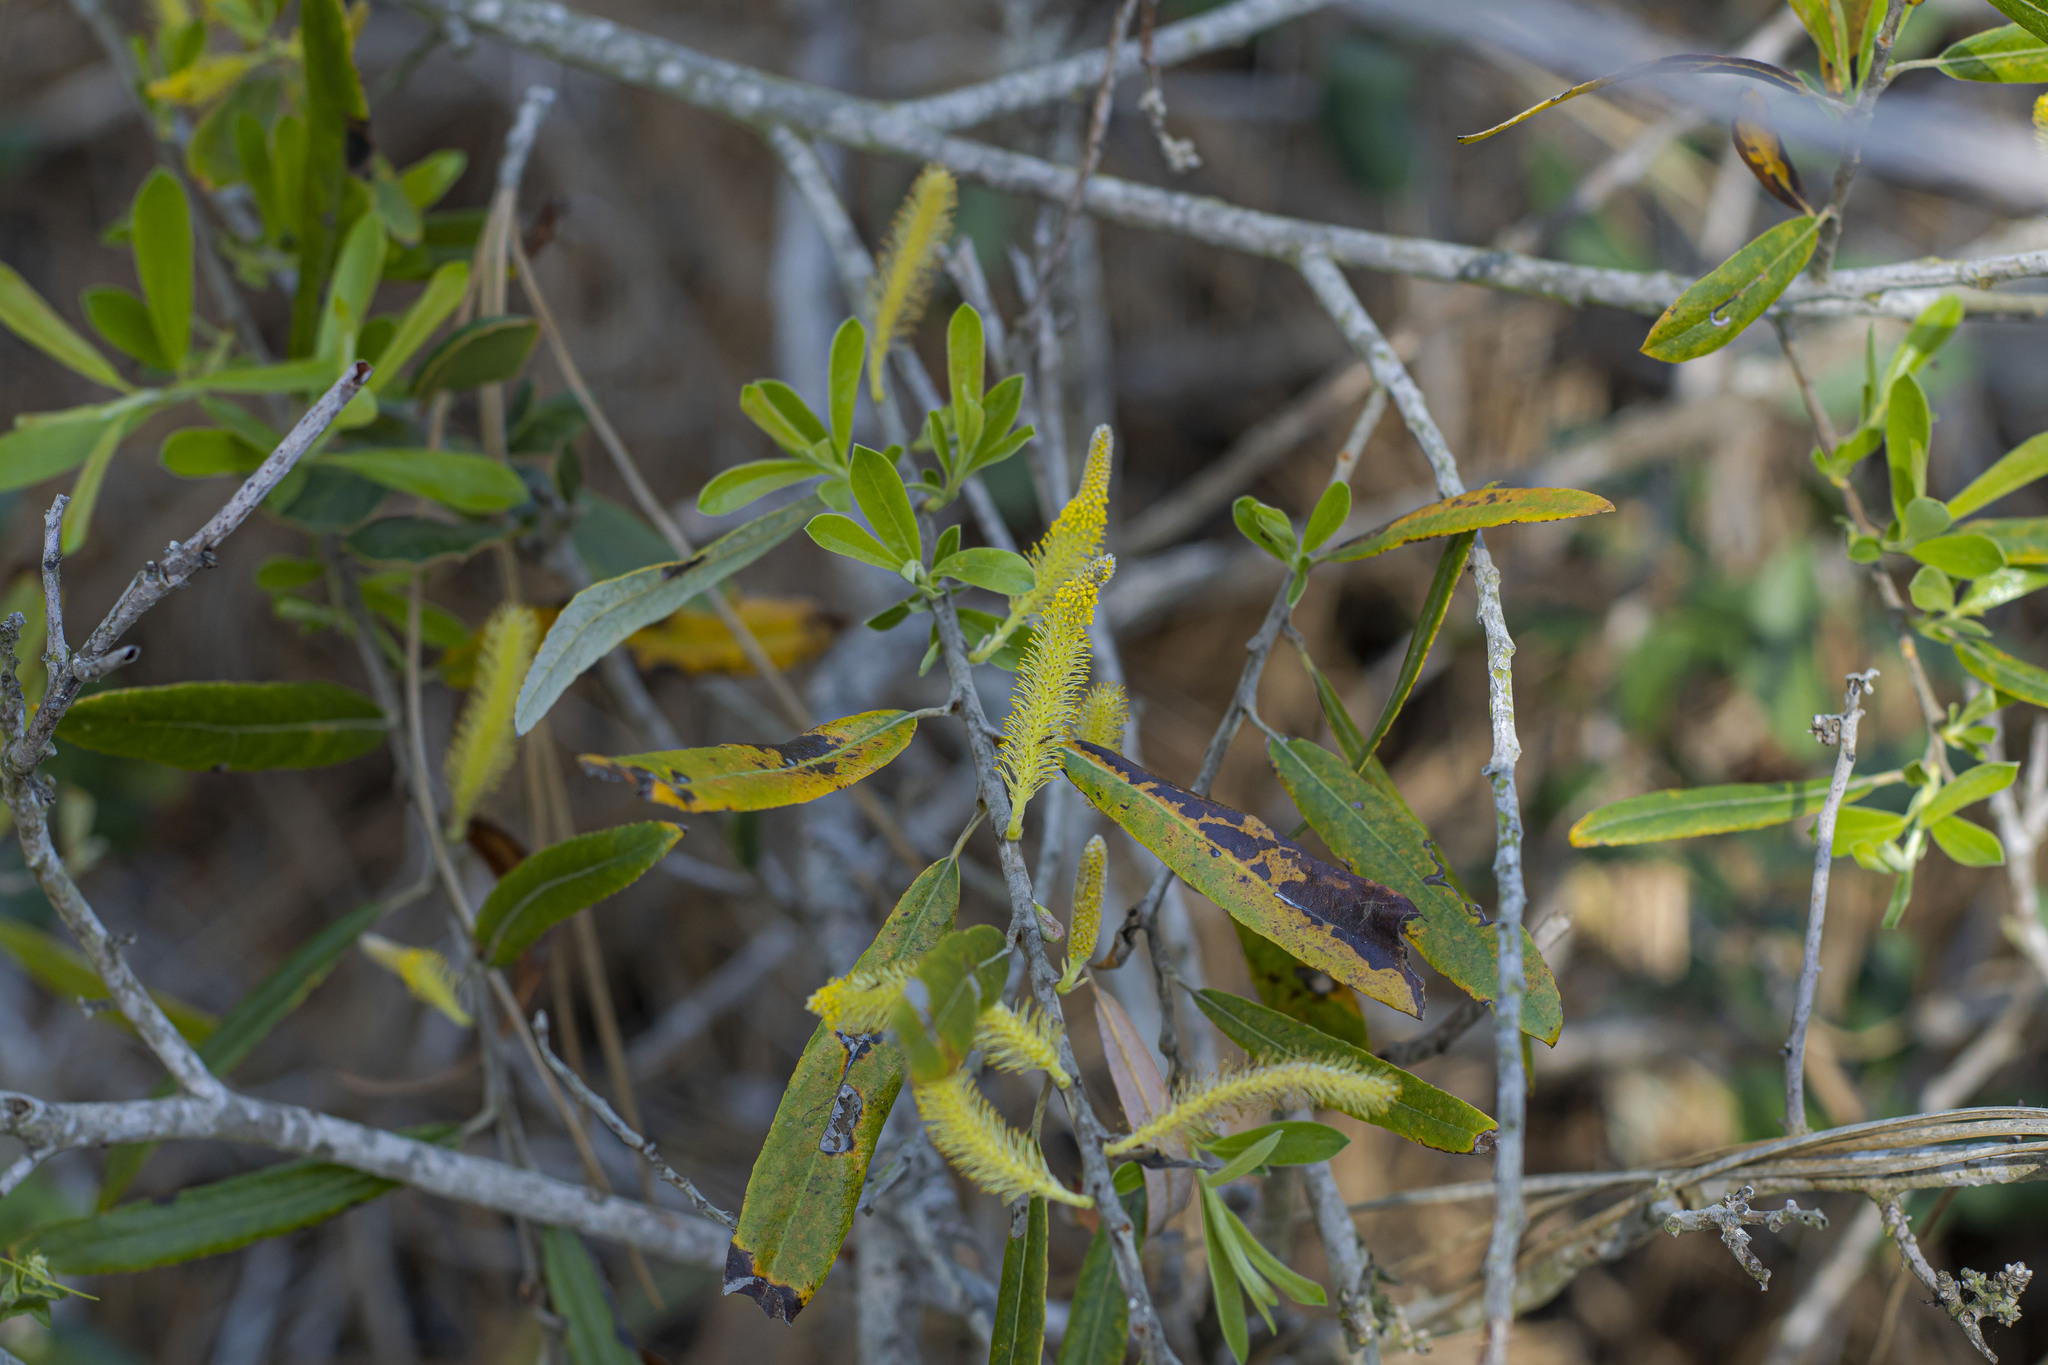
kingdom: Plantae
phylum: Tracheophyta
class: Magnoliopsida
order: Malpighiales
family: Salicaceae
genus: Salix
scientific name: Salix lasiolepis
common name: Arroyo willow
